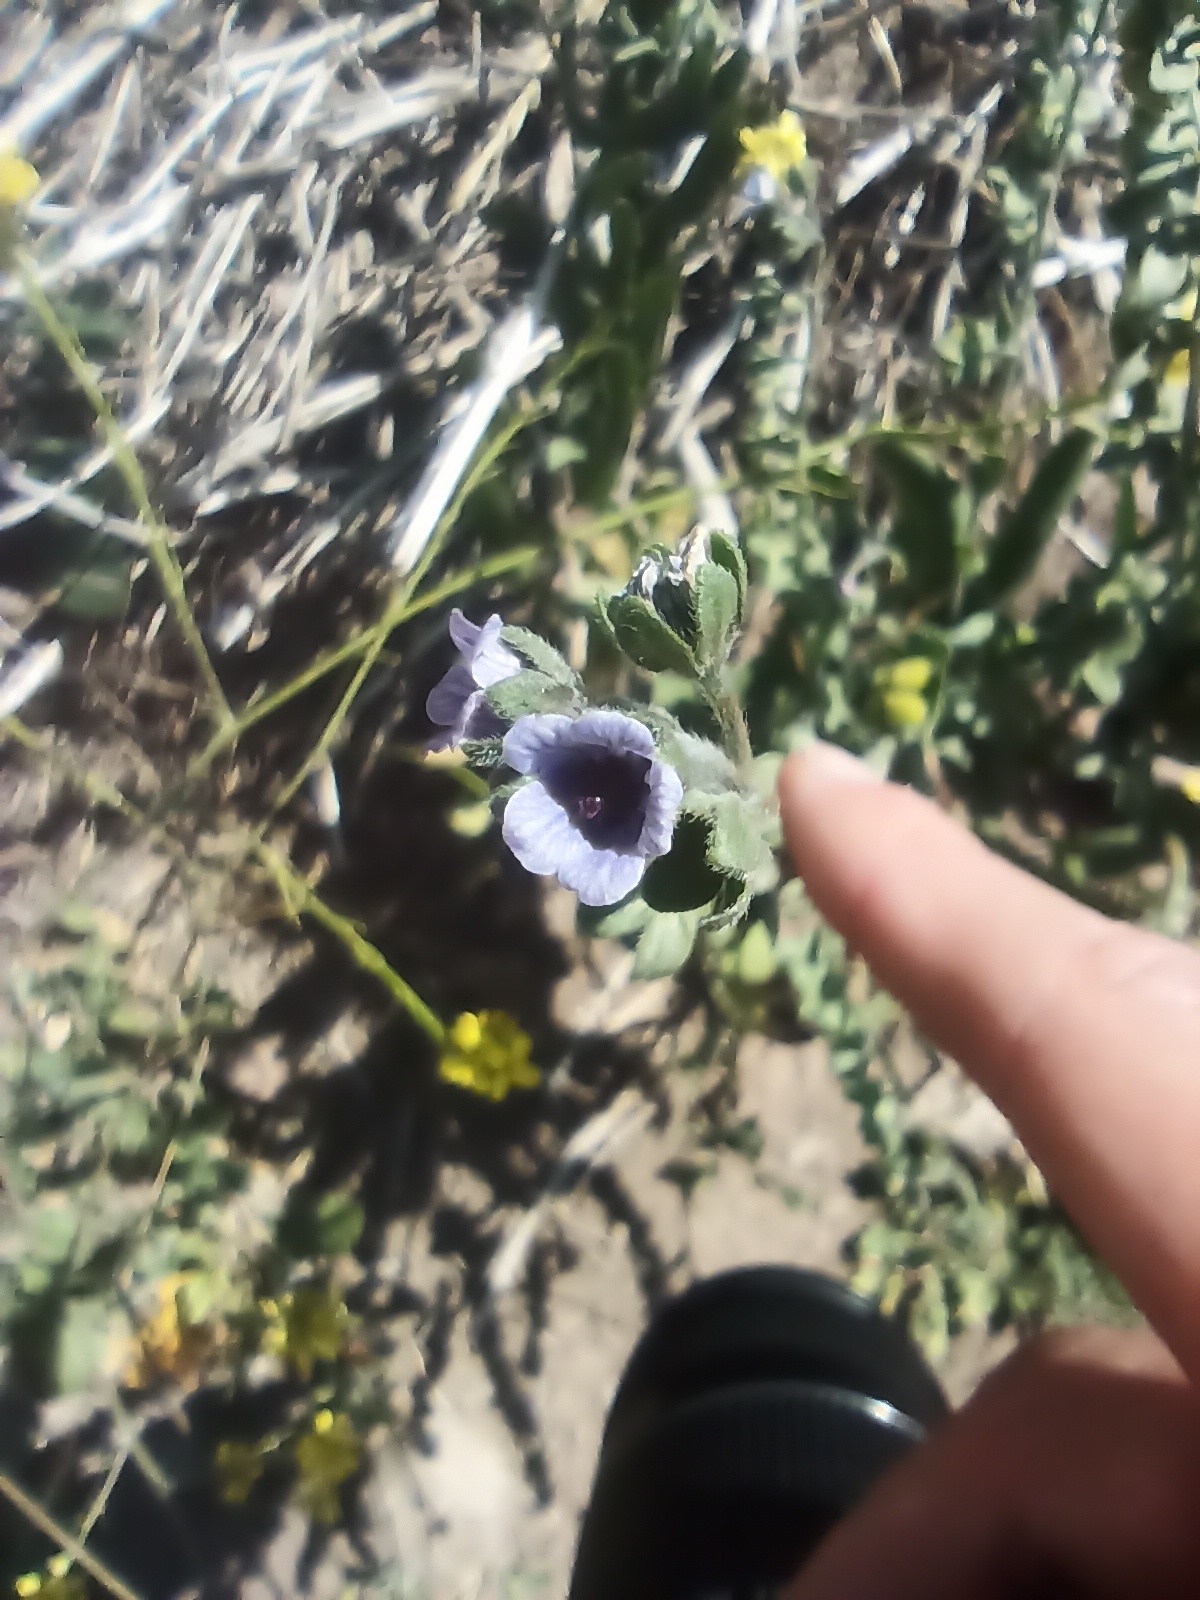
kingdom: Plantae
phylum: Tracheophyta
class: Magnoliopsida
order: Boraginales
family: Boraginaceae
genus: Cynoglossum
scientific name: Cynoglossum creticum
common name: Blue hound's tongue
